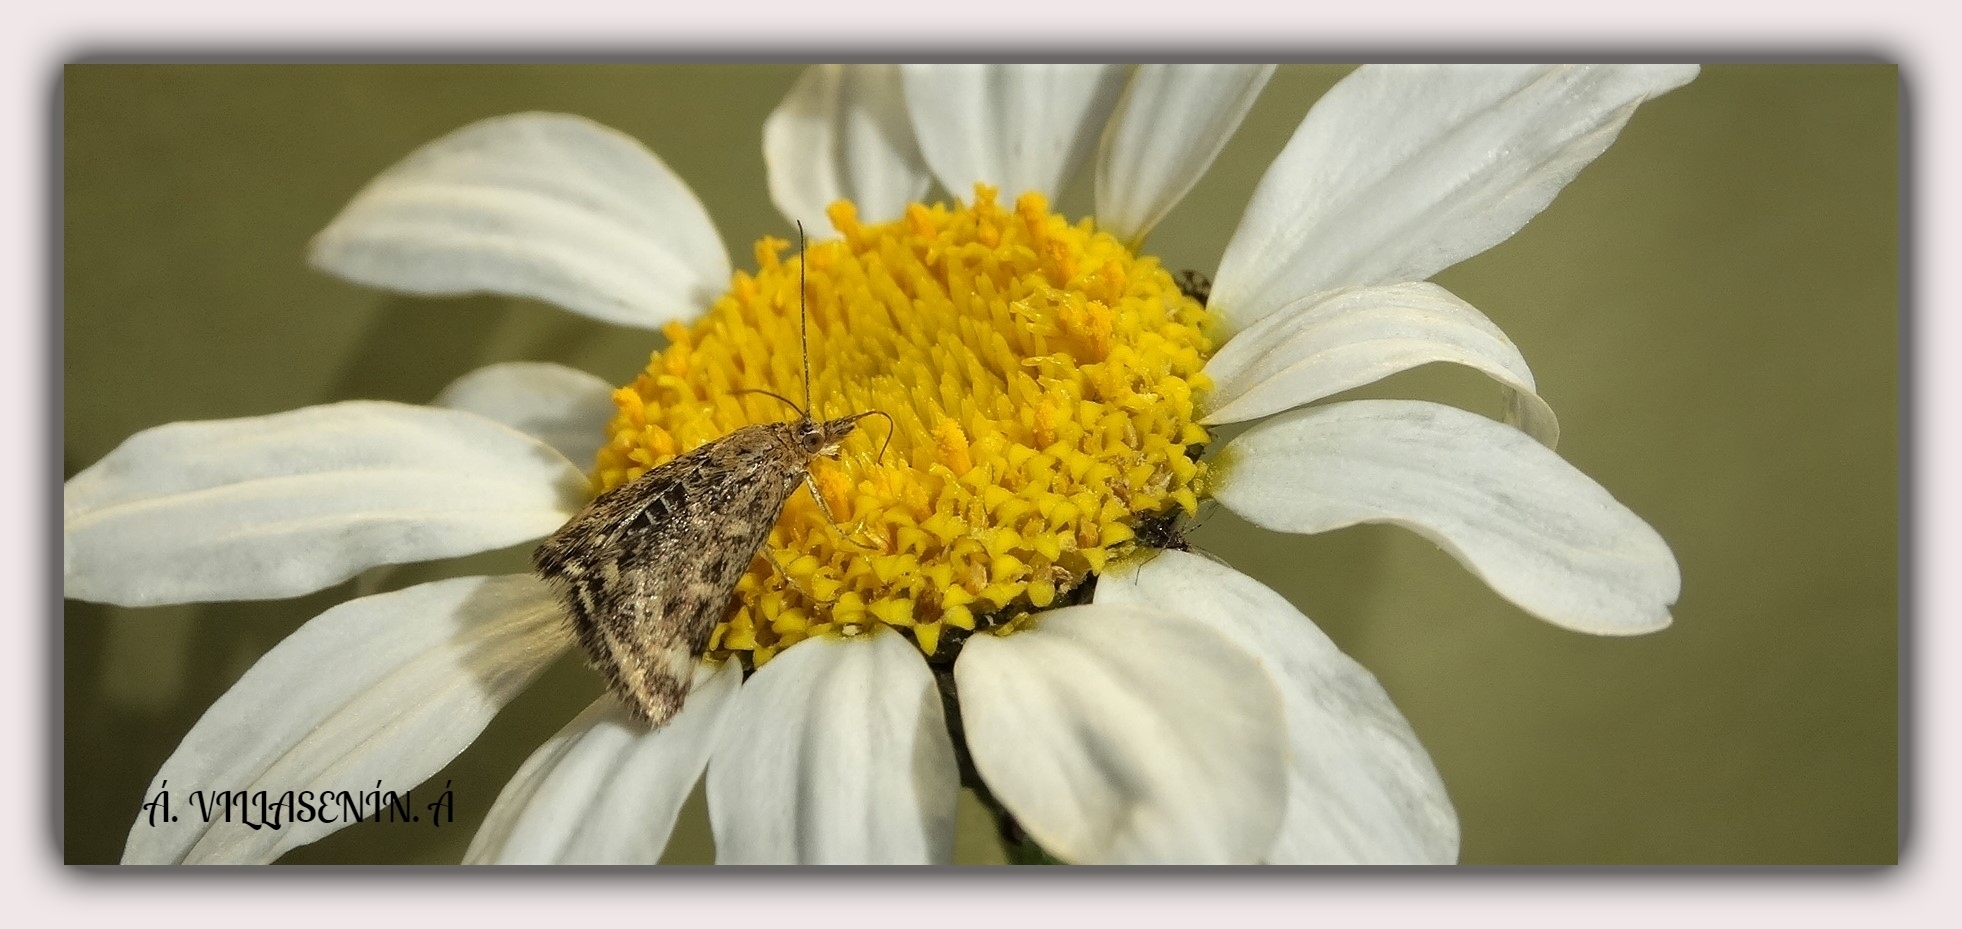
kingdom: Animalia
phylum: Arthropoda
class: Insecta
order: Lepidoptera
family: Crambidae
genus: Pyrausta
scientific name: Pyrausta despicata
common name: Straw-barred pearl
